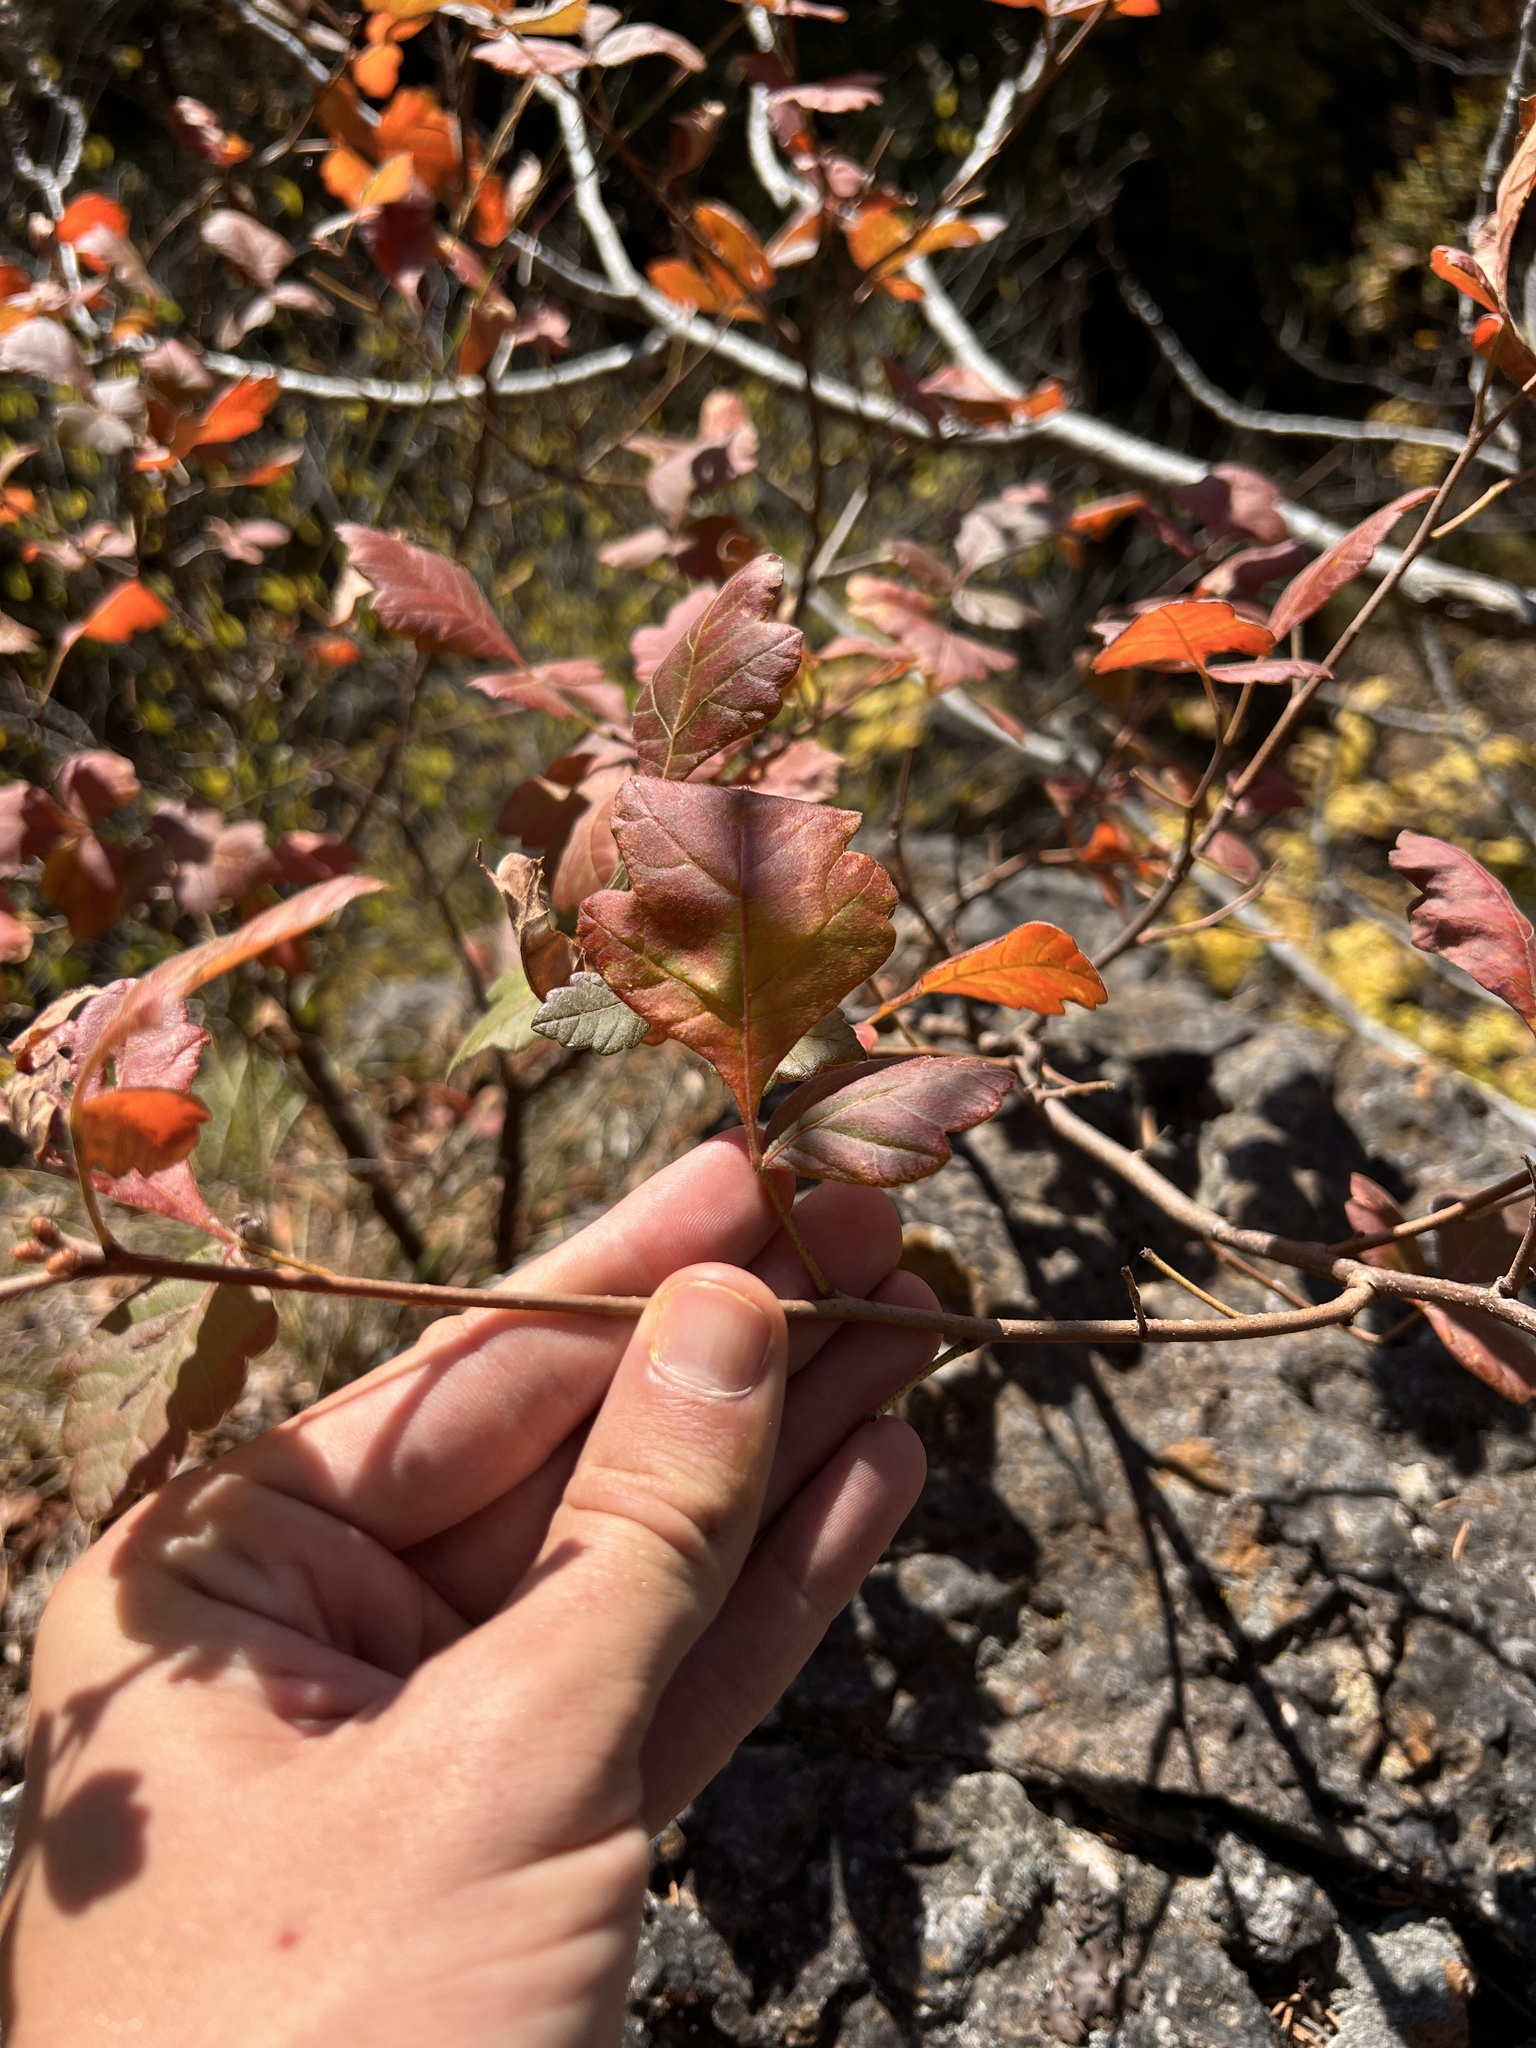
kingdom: Plantae
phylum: Tracheophyta
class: Magnoliopsida
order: Sapindales
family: Anacardiaceae
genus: Rhus
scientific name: Rhus aromatica
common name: Aromatic sumac
